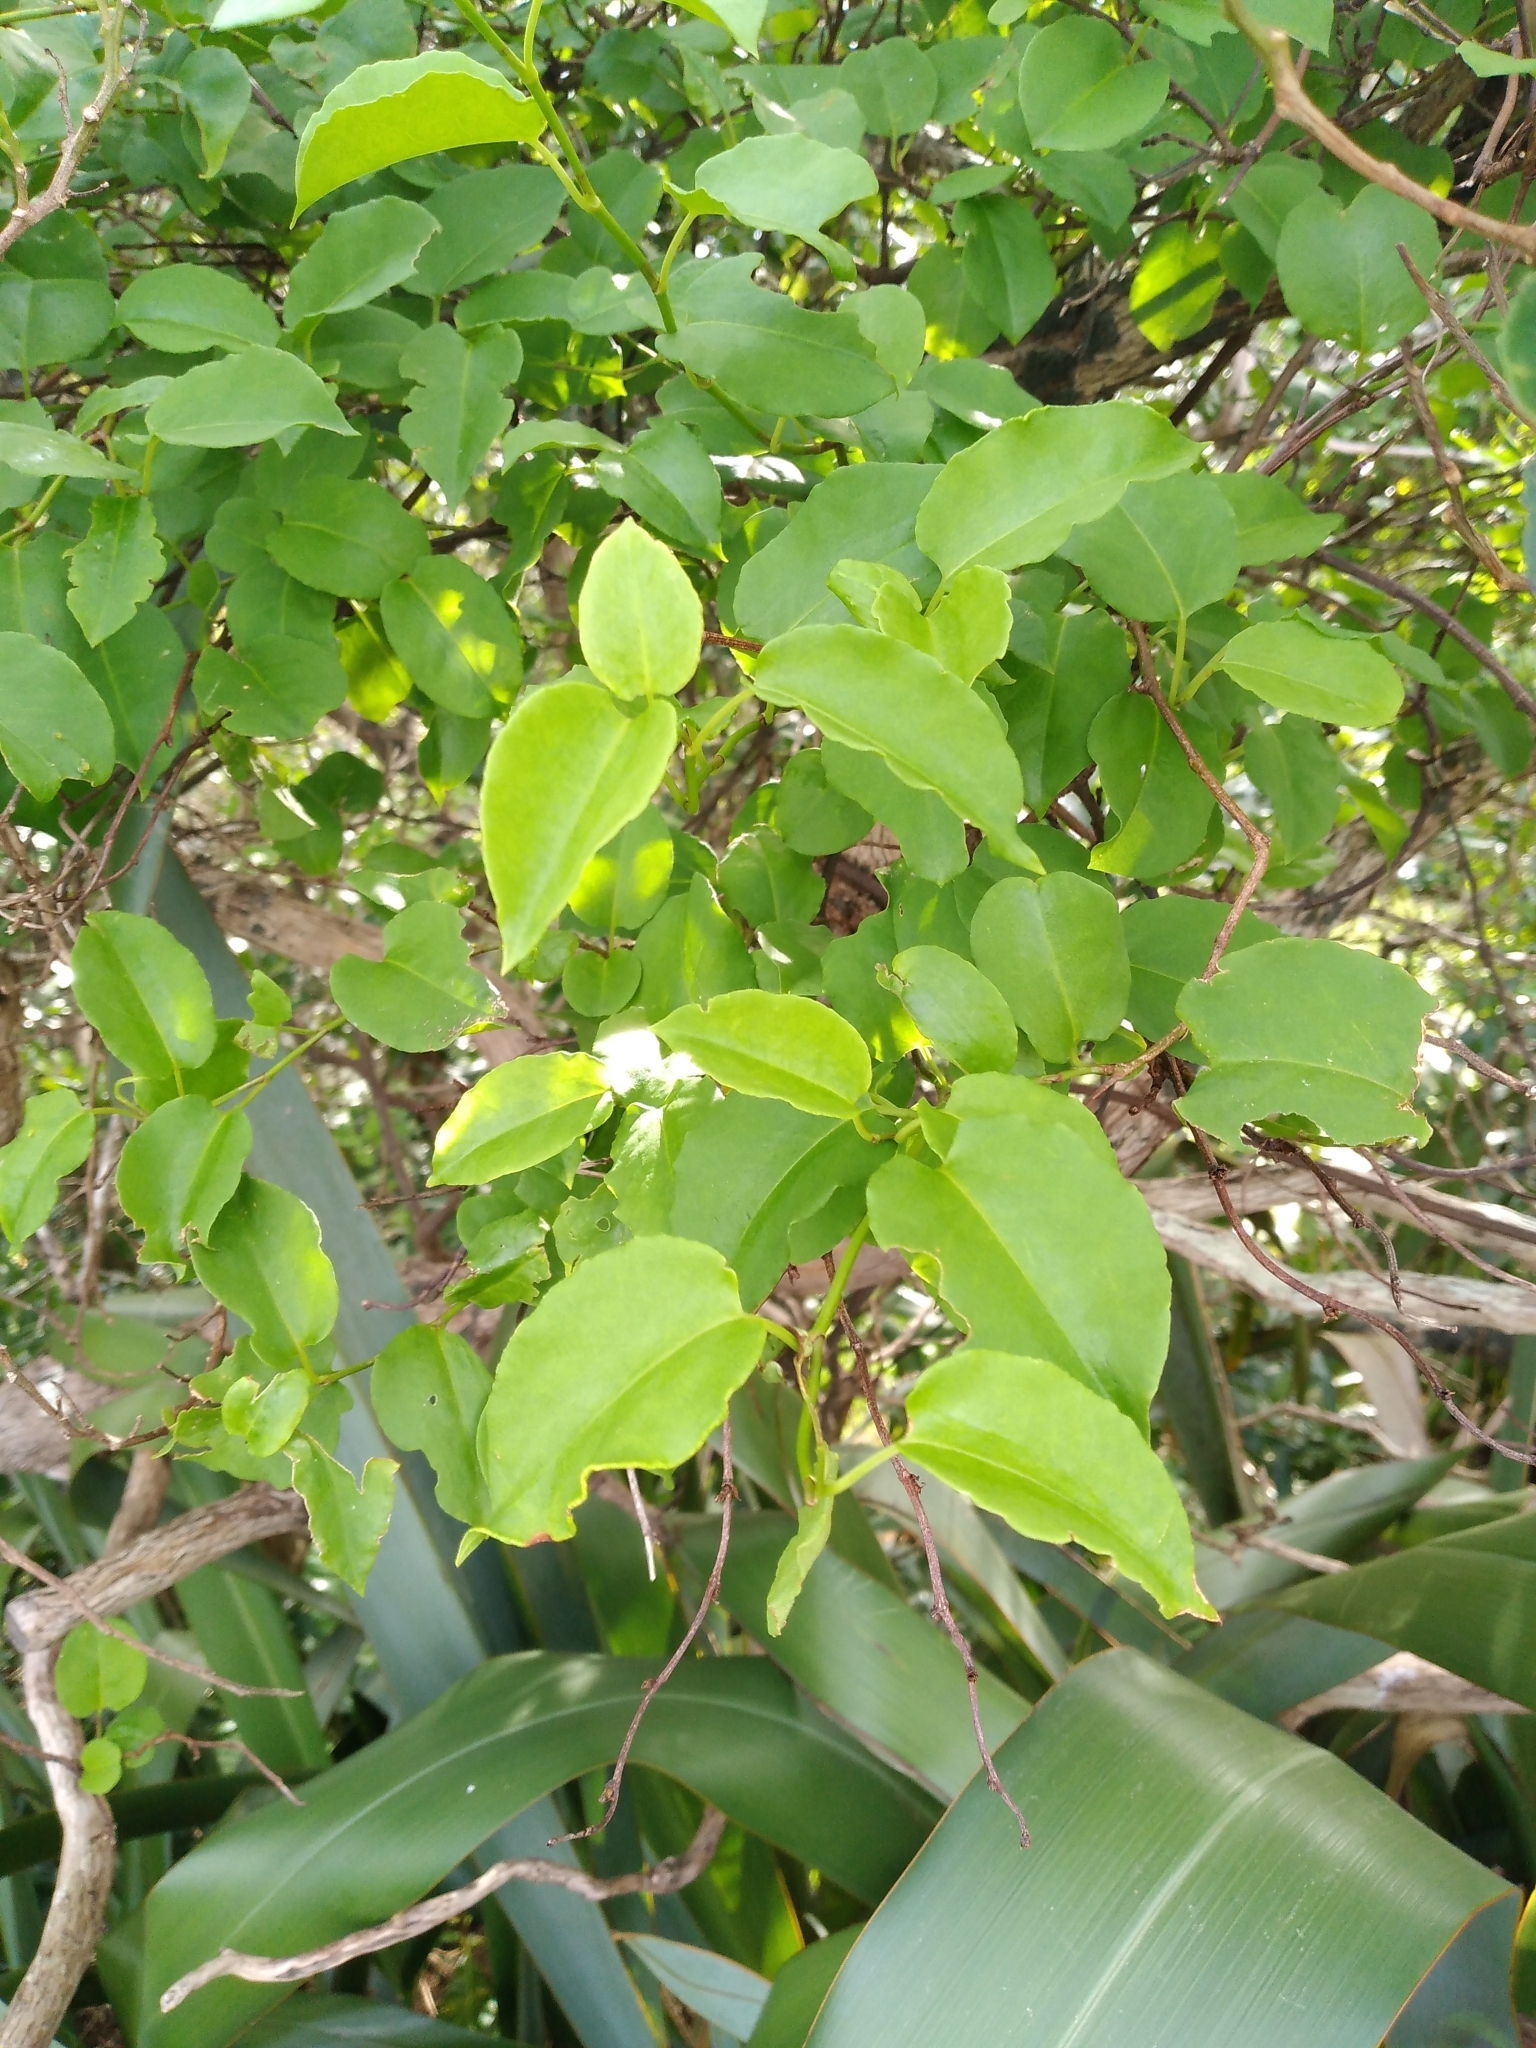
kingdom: Plantae
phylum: Tracheophyta
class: Magnoliopsida
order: Caryophyllales
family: Polygonaceae
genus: Muehlenbeckia
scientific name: Muehlenbeckia australis
